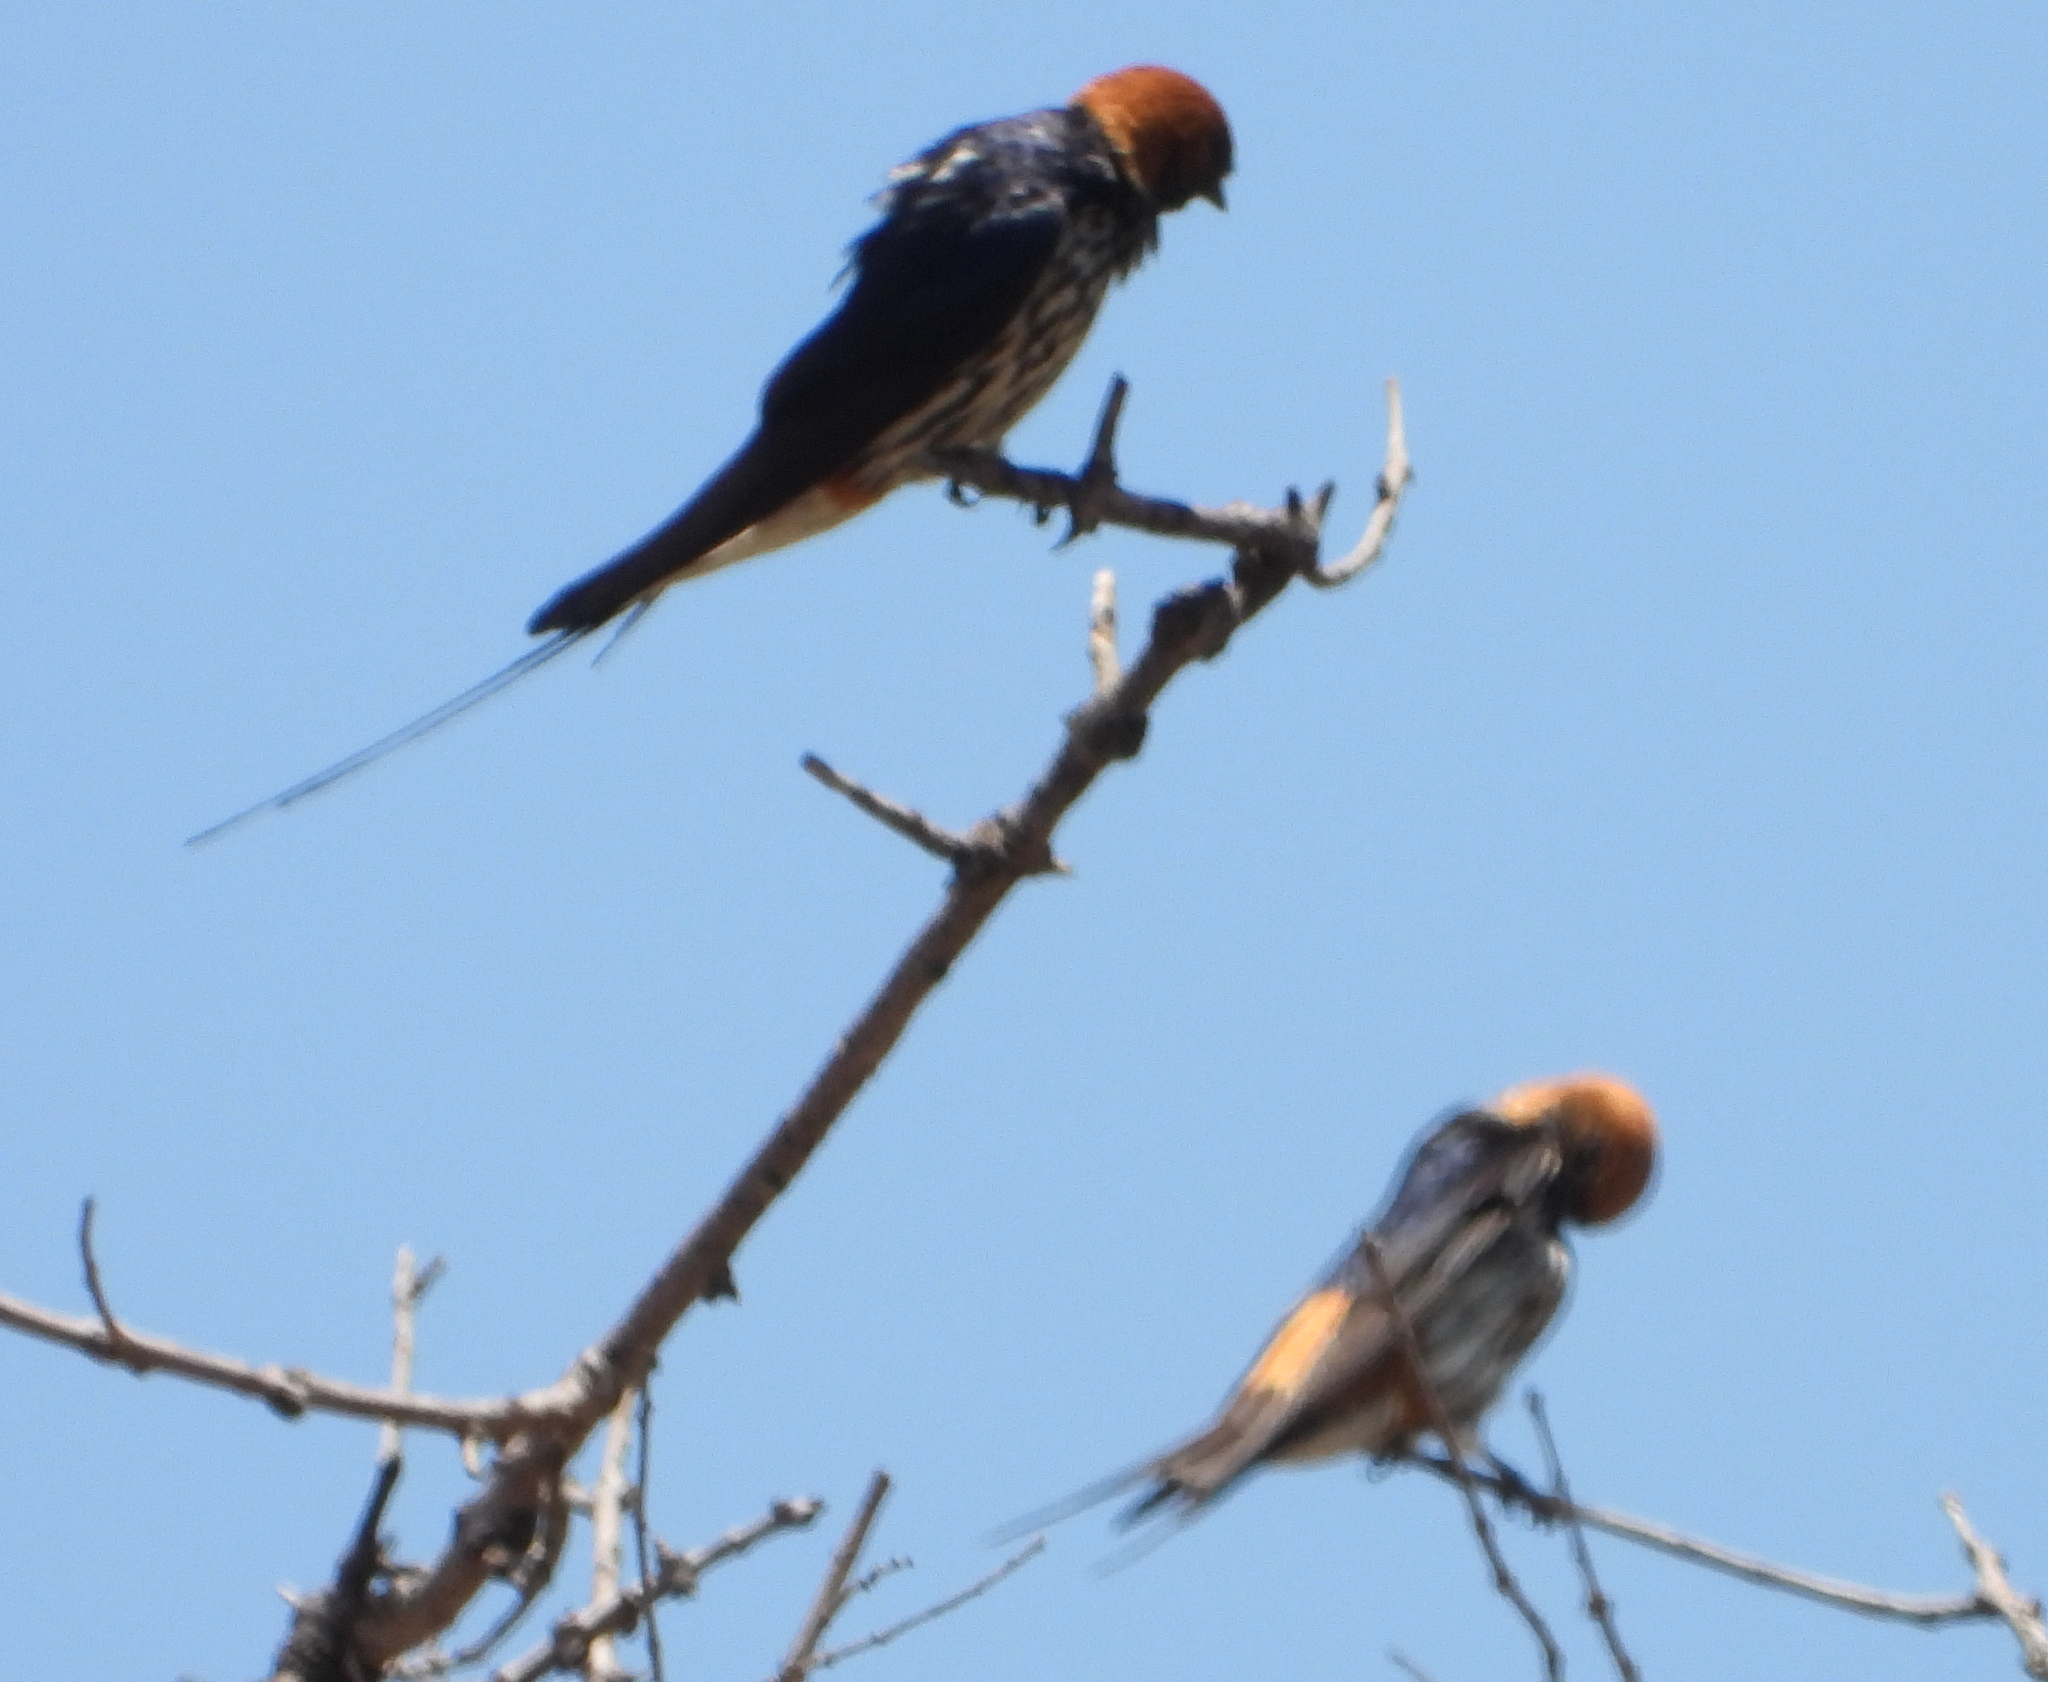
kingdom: Animalia
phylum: Chordata
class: Aves
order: Passeriformes
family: Hirundinidae
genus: Cecropis
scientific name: Cecropis abyssinica
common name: Lesser striped-swallow
